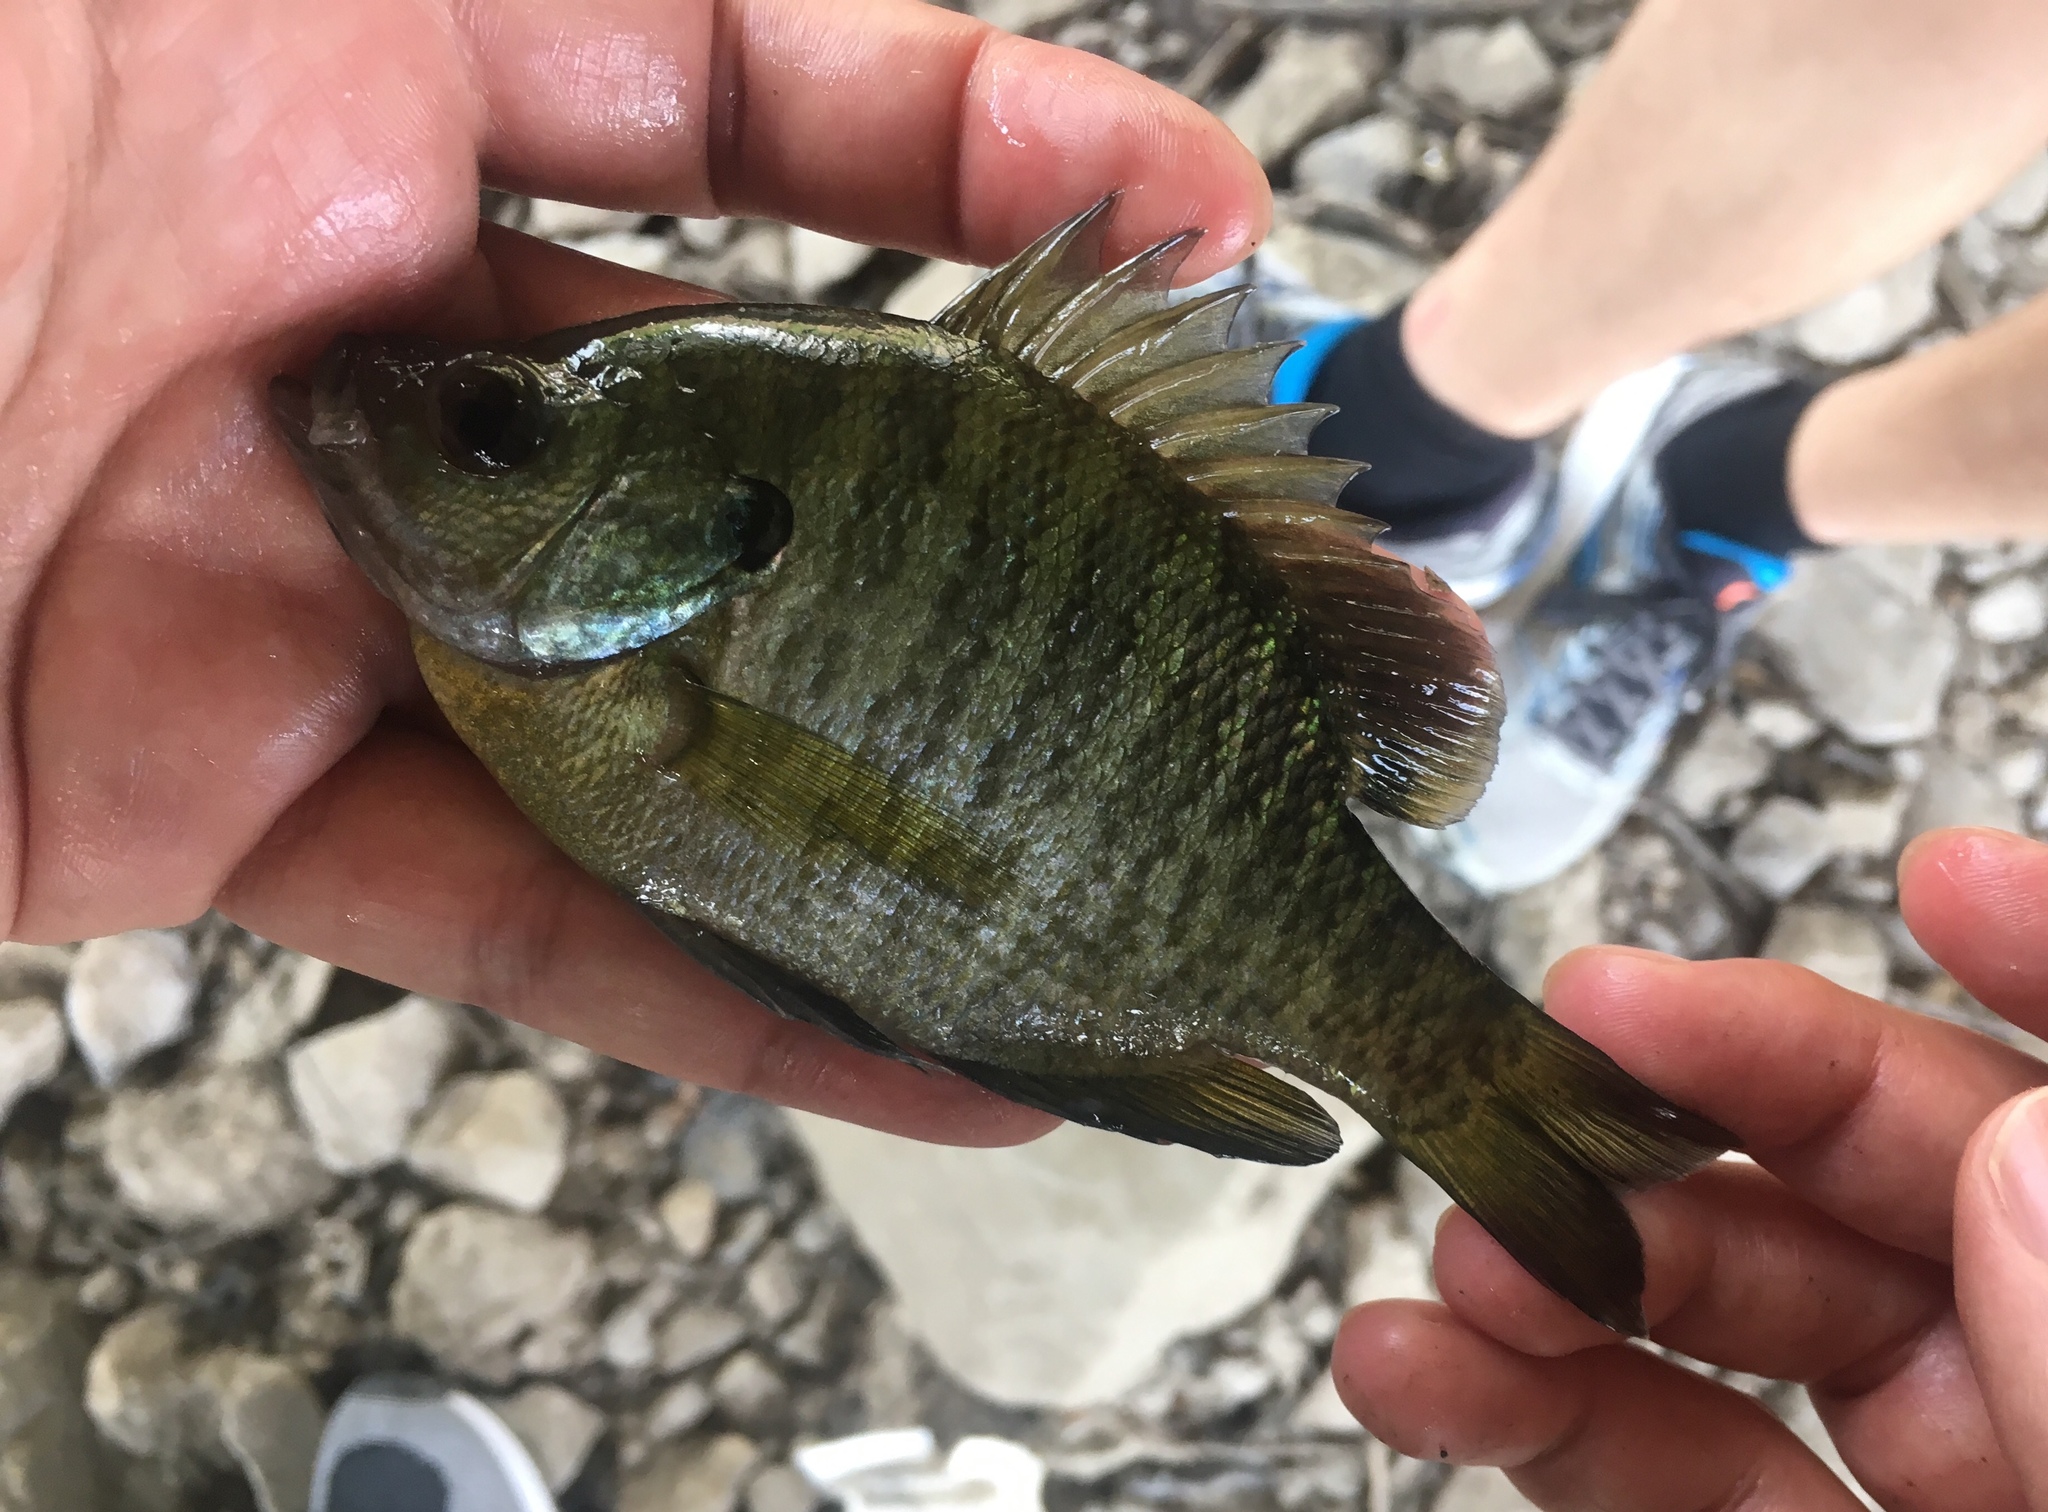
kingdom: Animalia
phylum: Chordata
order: Perciformes
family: Centrarchidae
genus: Lepomis
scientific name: Lepomis macrochirus
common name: Bluegill
